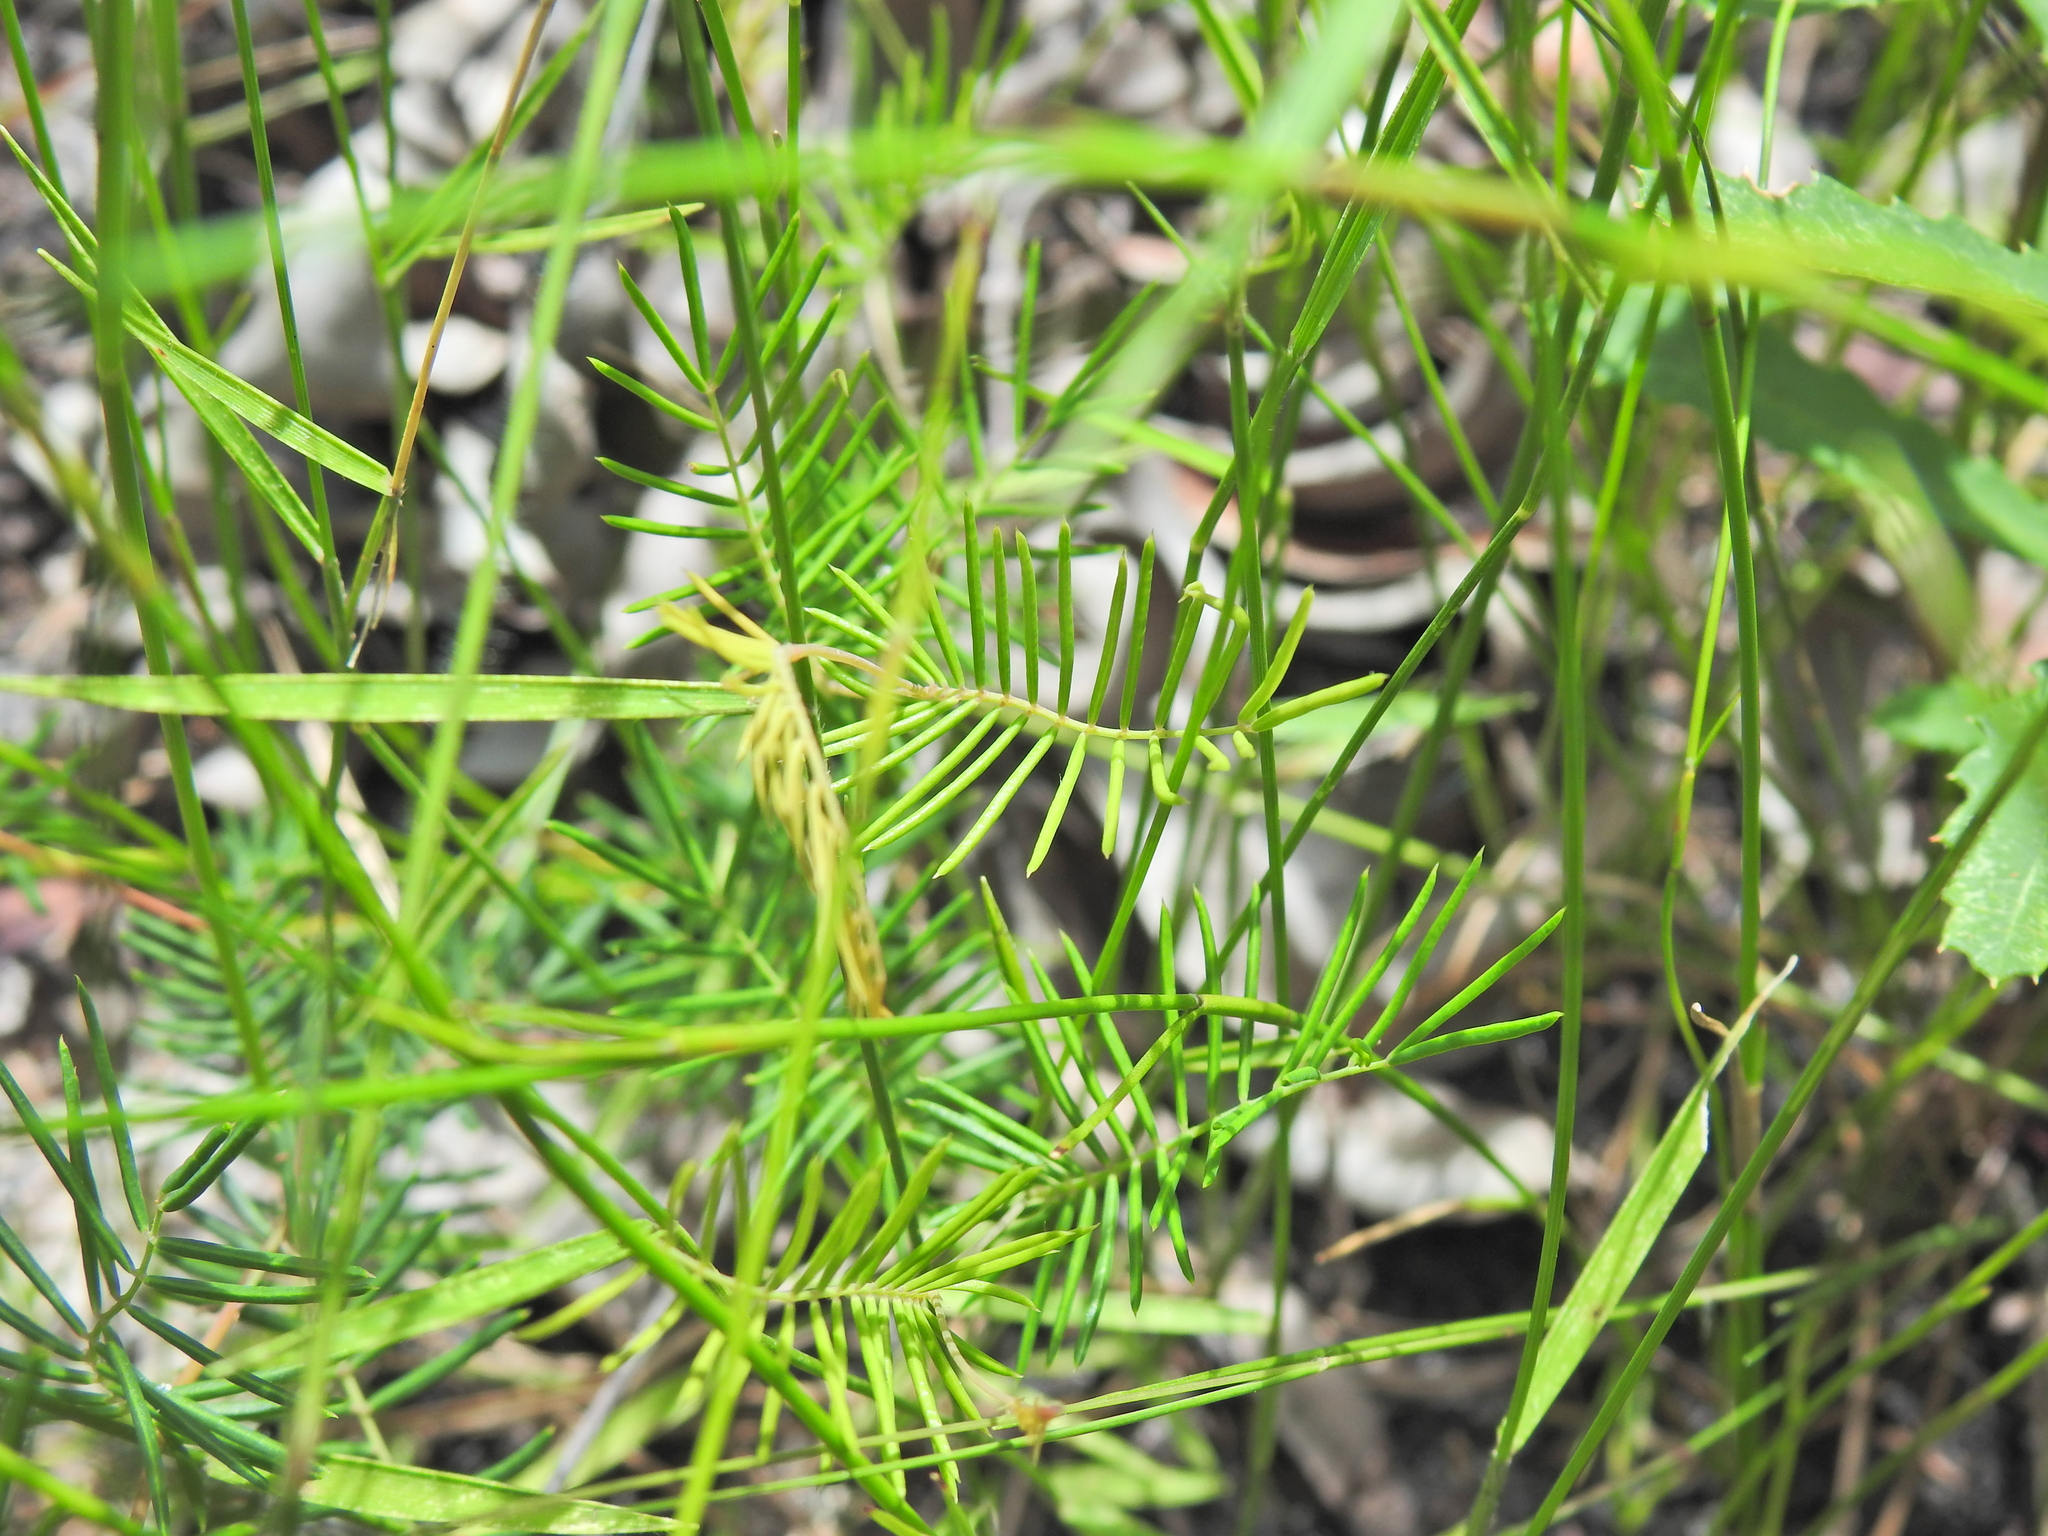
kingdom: Plantae
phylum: Tracheophyta
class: Magnoliopsida
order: Fabales
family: Fabaceae
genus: Gompholobium
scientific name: Gompholobium pinnatum
